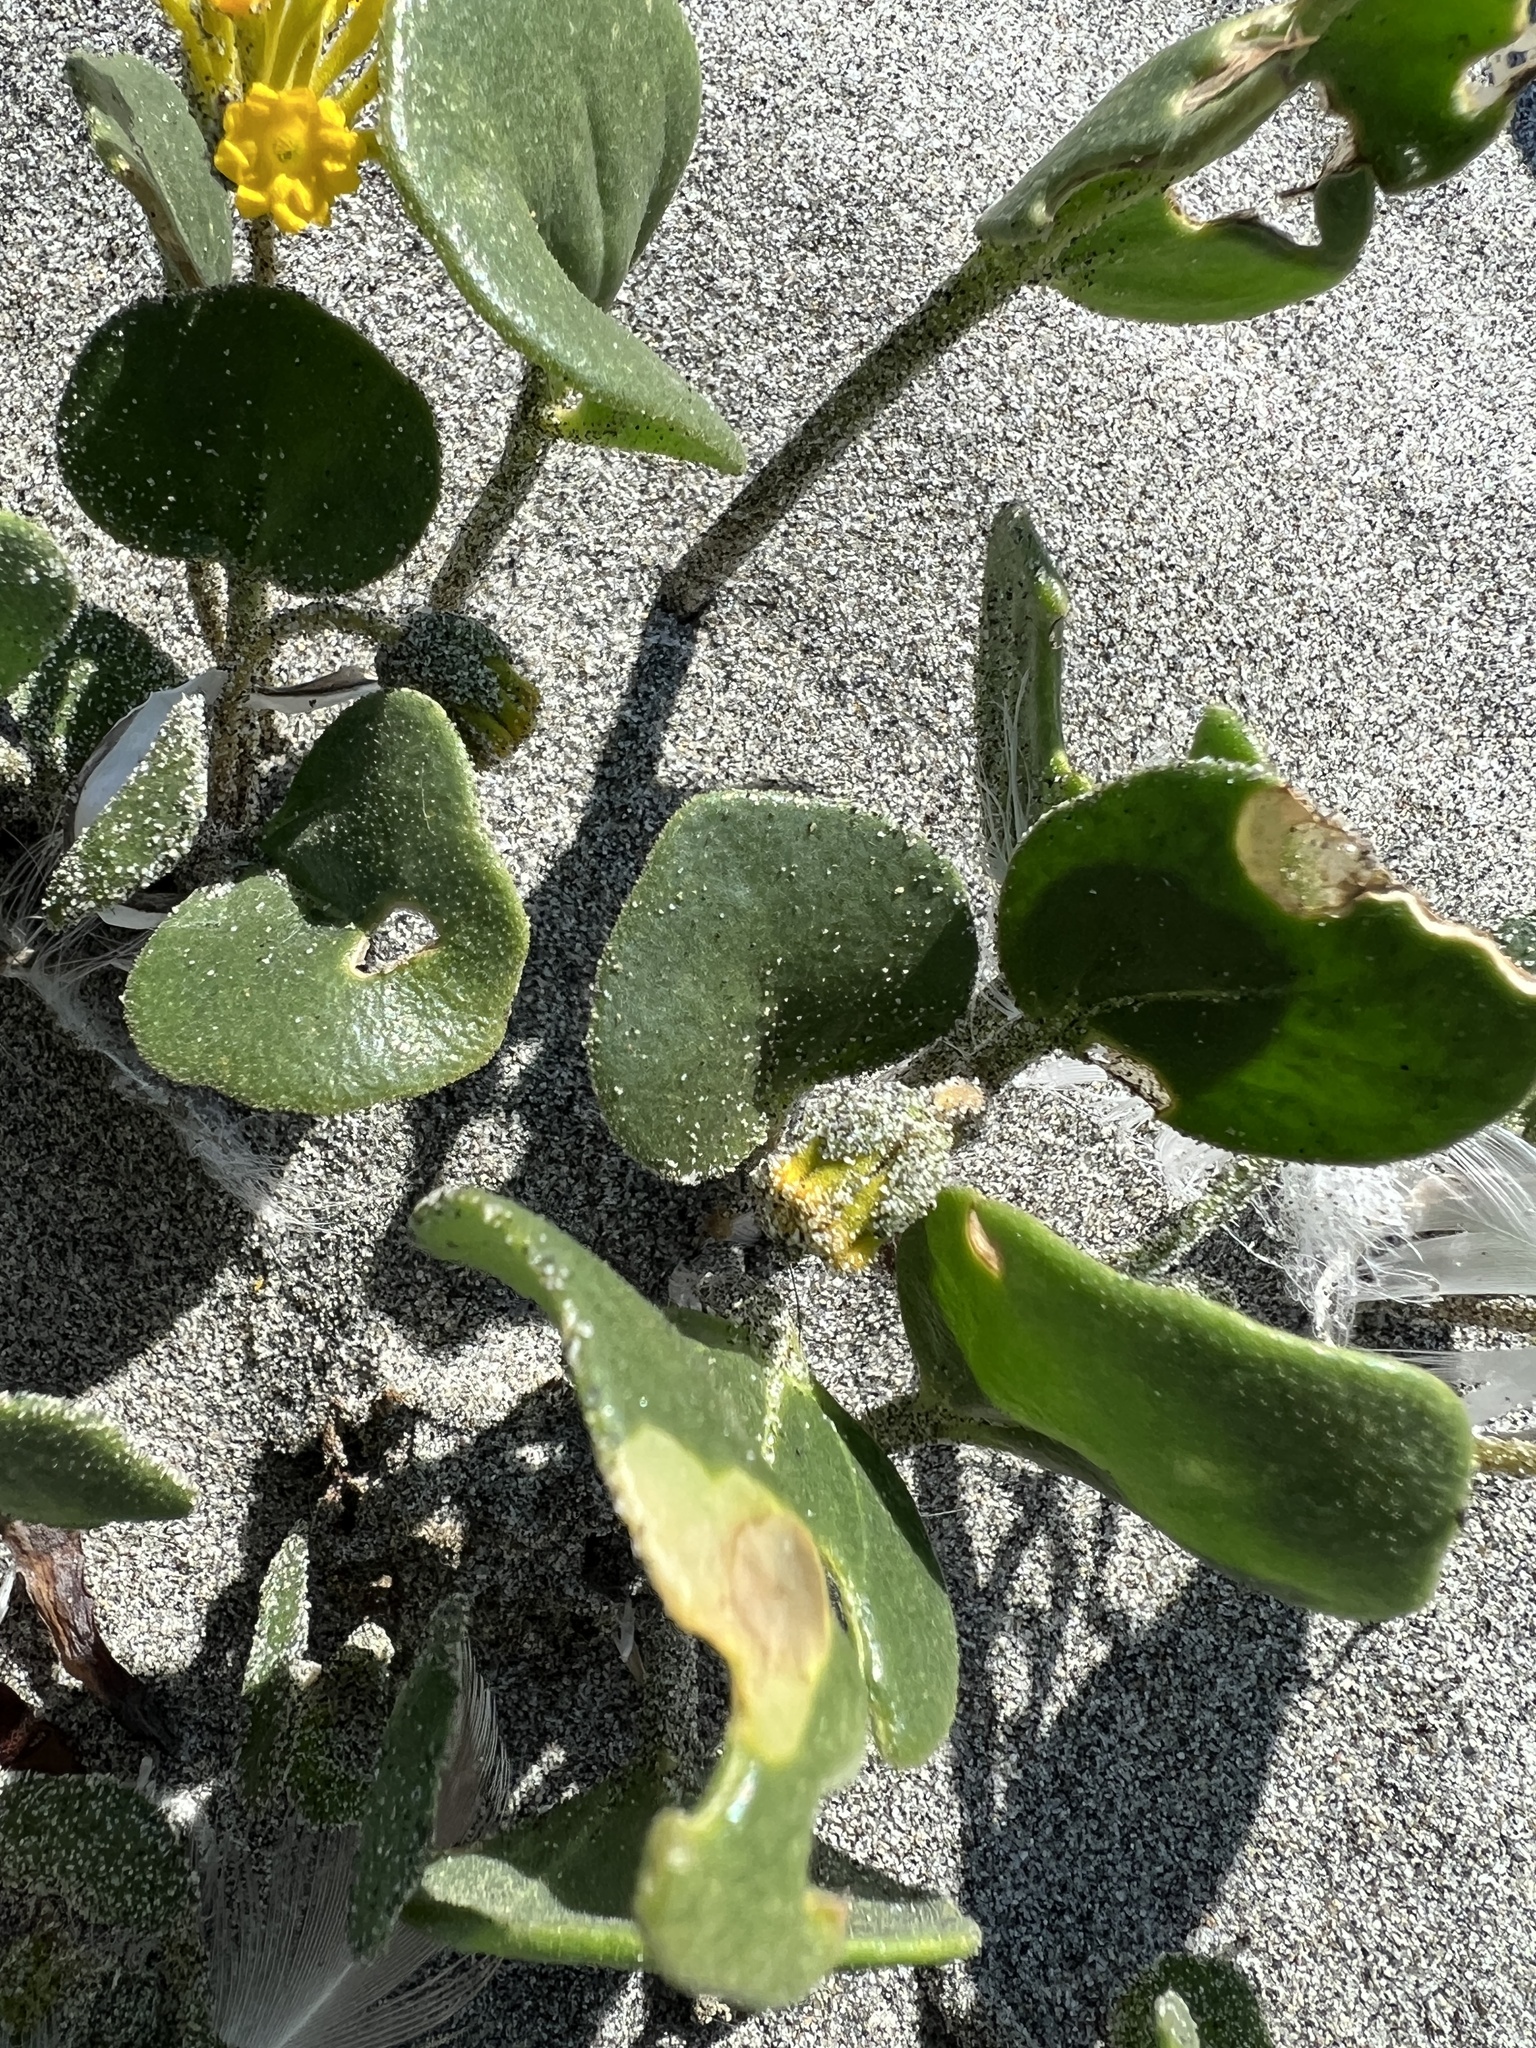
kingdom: Plantae
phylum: Tracheophyta
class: Magnoliopsida
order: Caryophyllales
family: Nyctaginaceae
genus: Abronia
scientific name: Abronia latifolia
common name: Yellow sand-verbena
